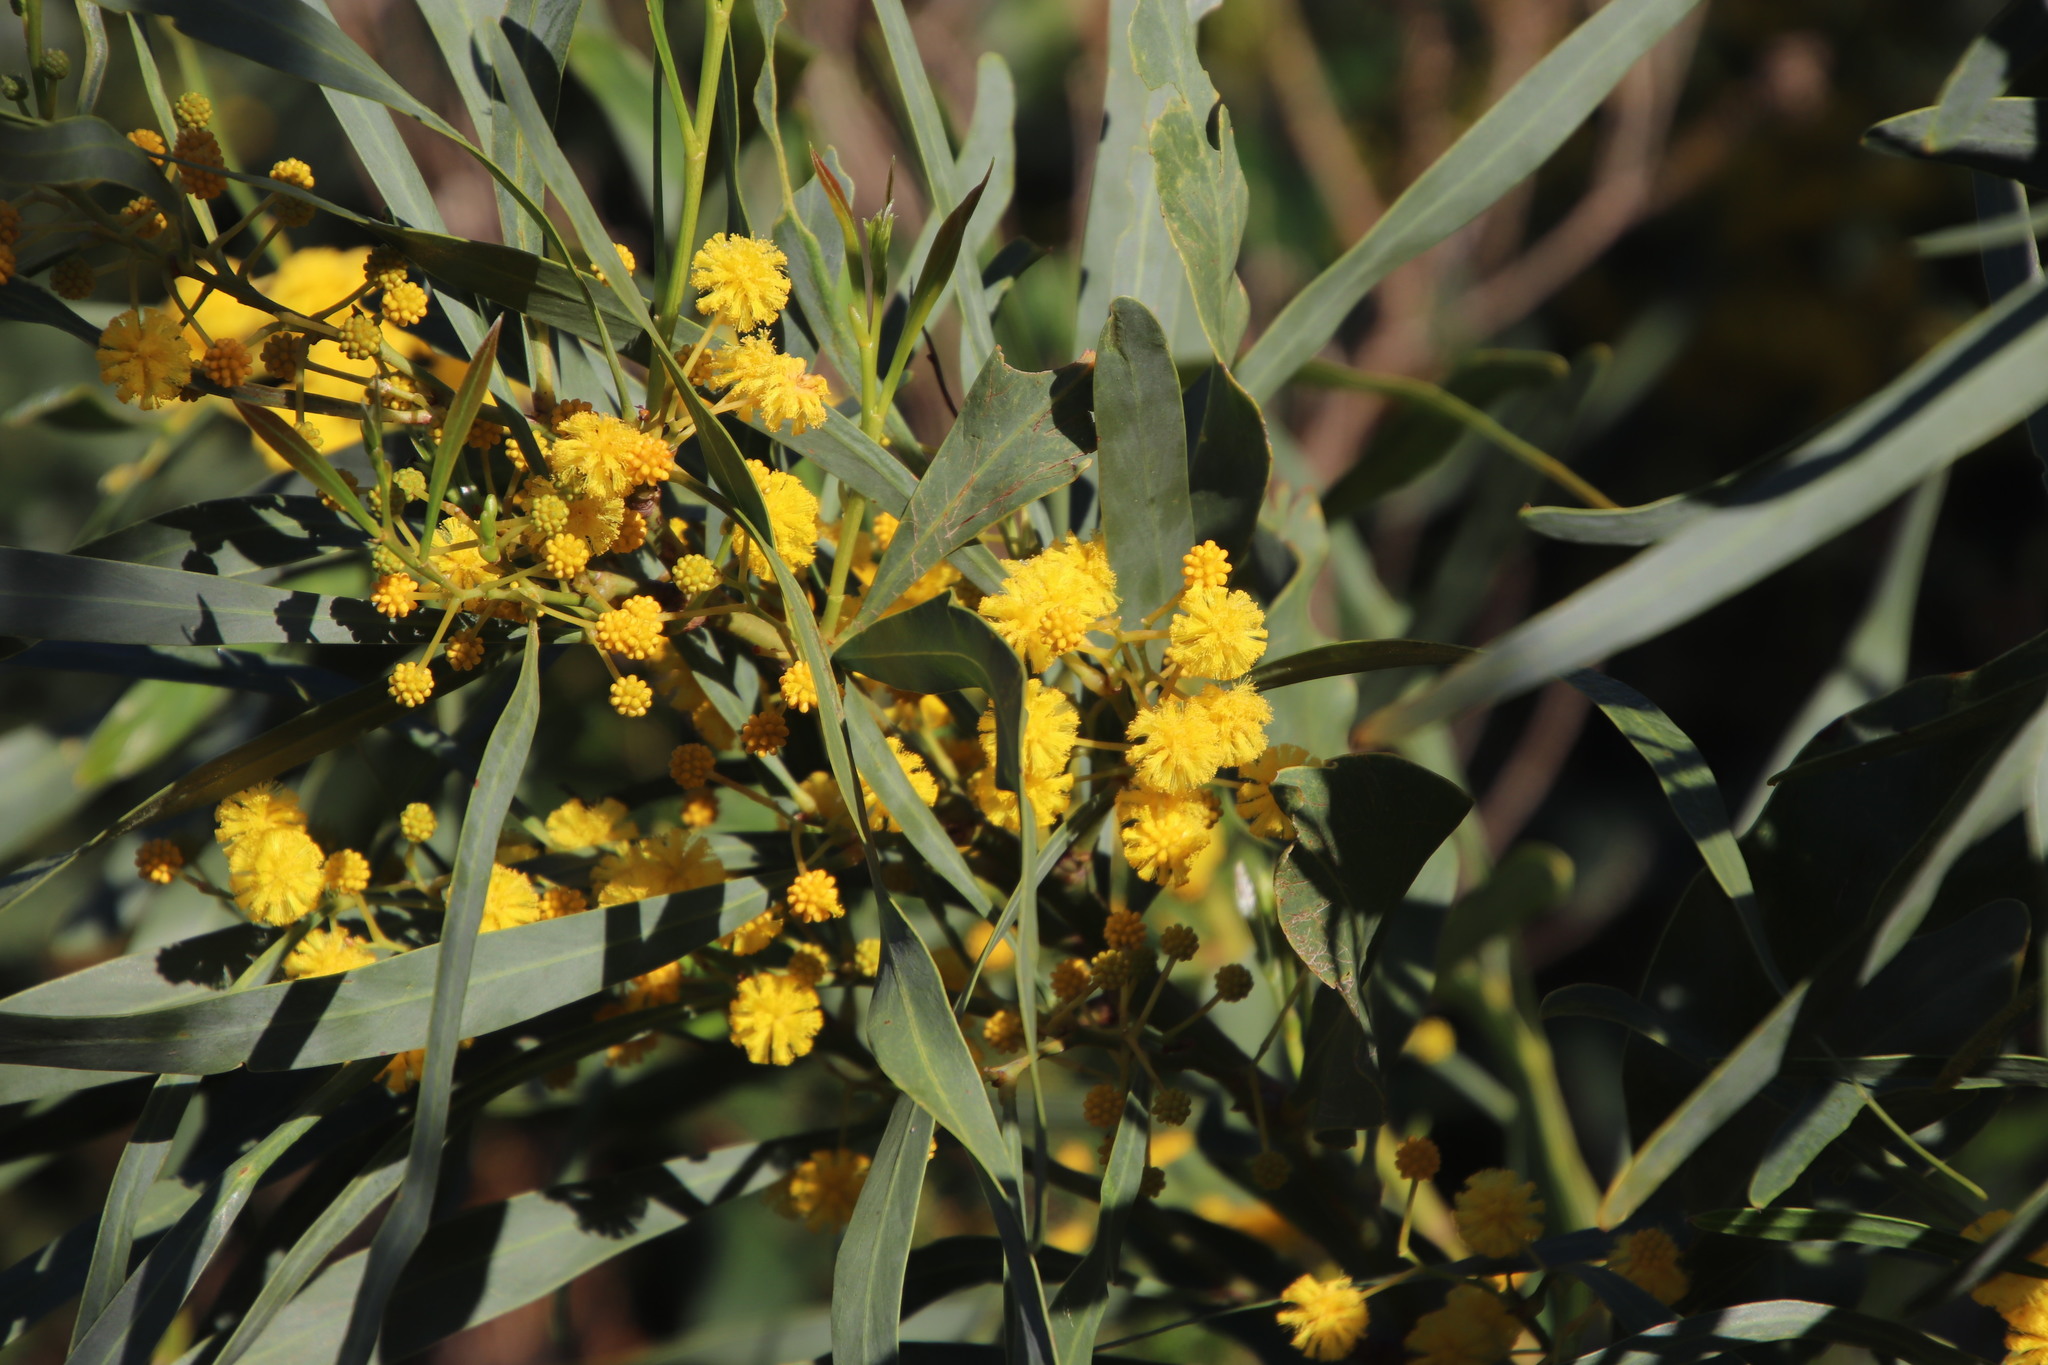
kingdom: Plantae
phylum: Tracheophyta
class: Magnoliopsida
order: Fabales
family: Fabaceae
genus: Acacia
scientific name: Acacia saligna
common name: Orange wattle
